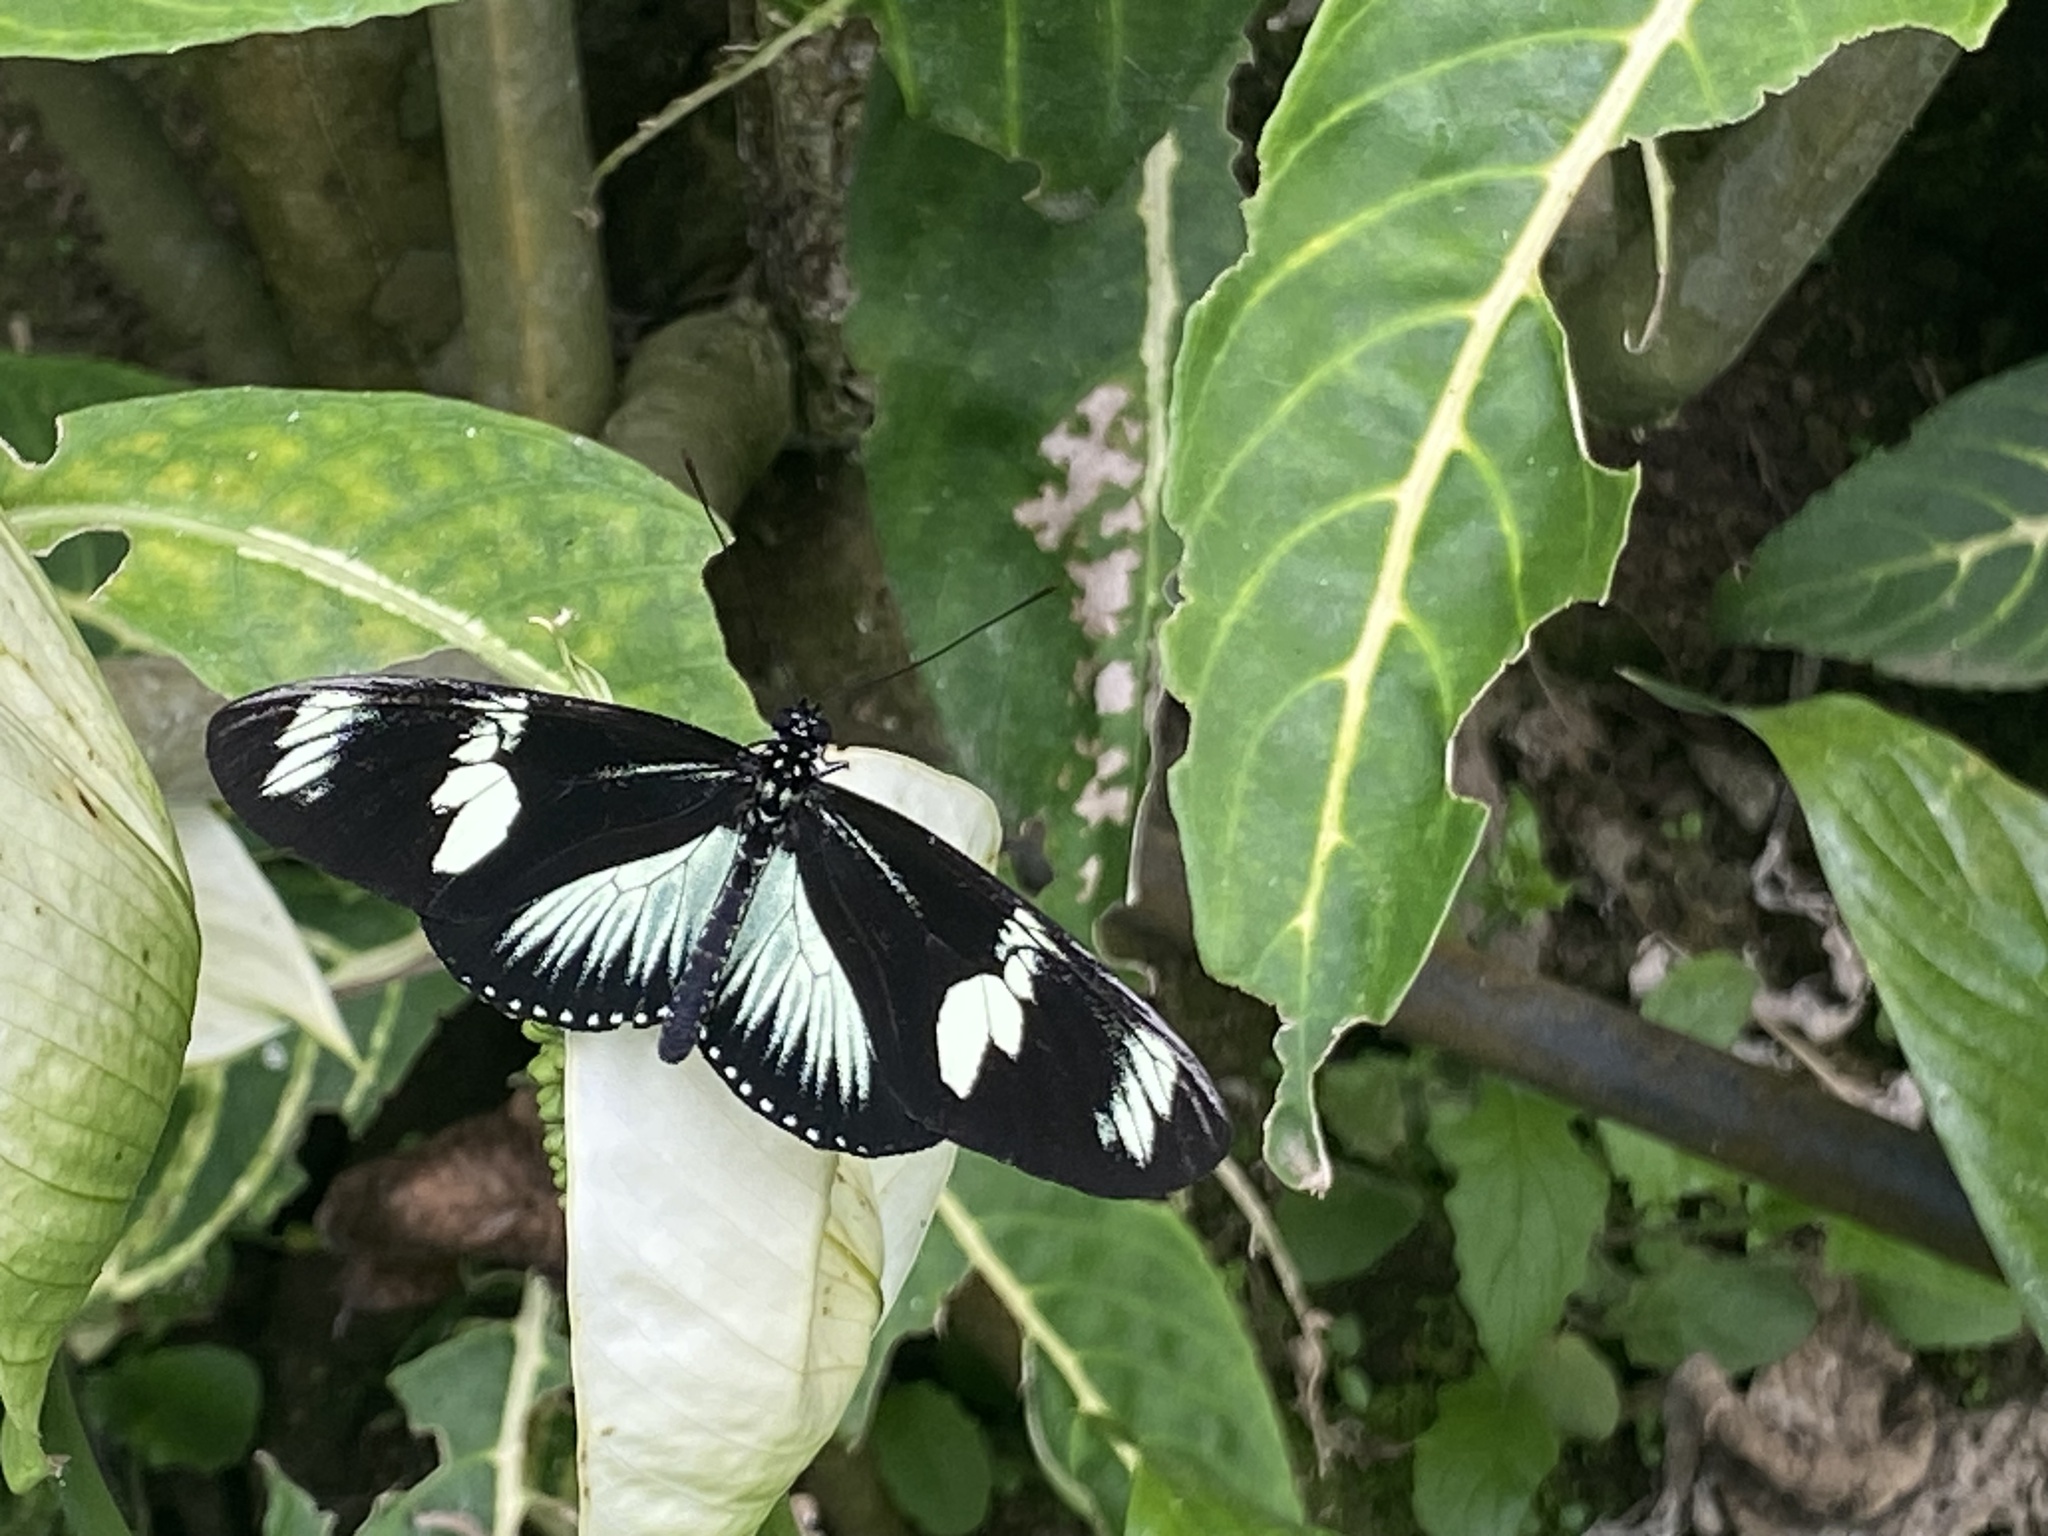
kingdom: Animalia
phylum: Arthropoda
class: Insecta
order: Lepidoptera
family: Nymphalidae
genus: Heliconius
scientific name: Heliconius doris
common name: Doris longwing
